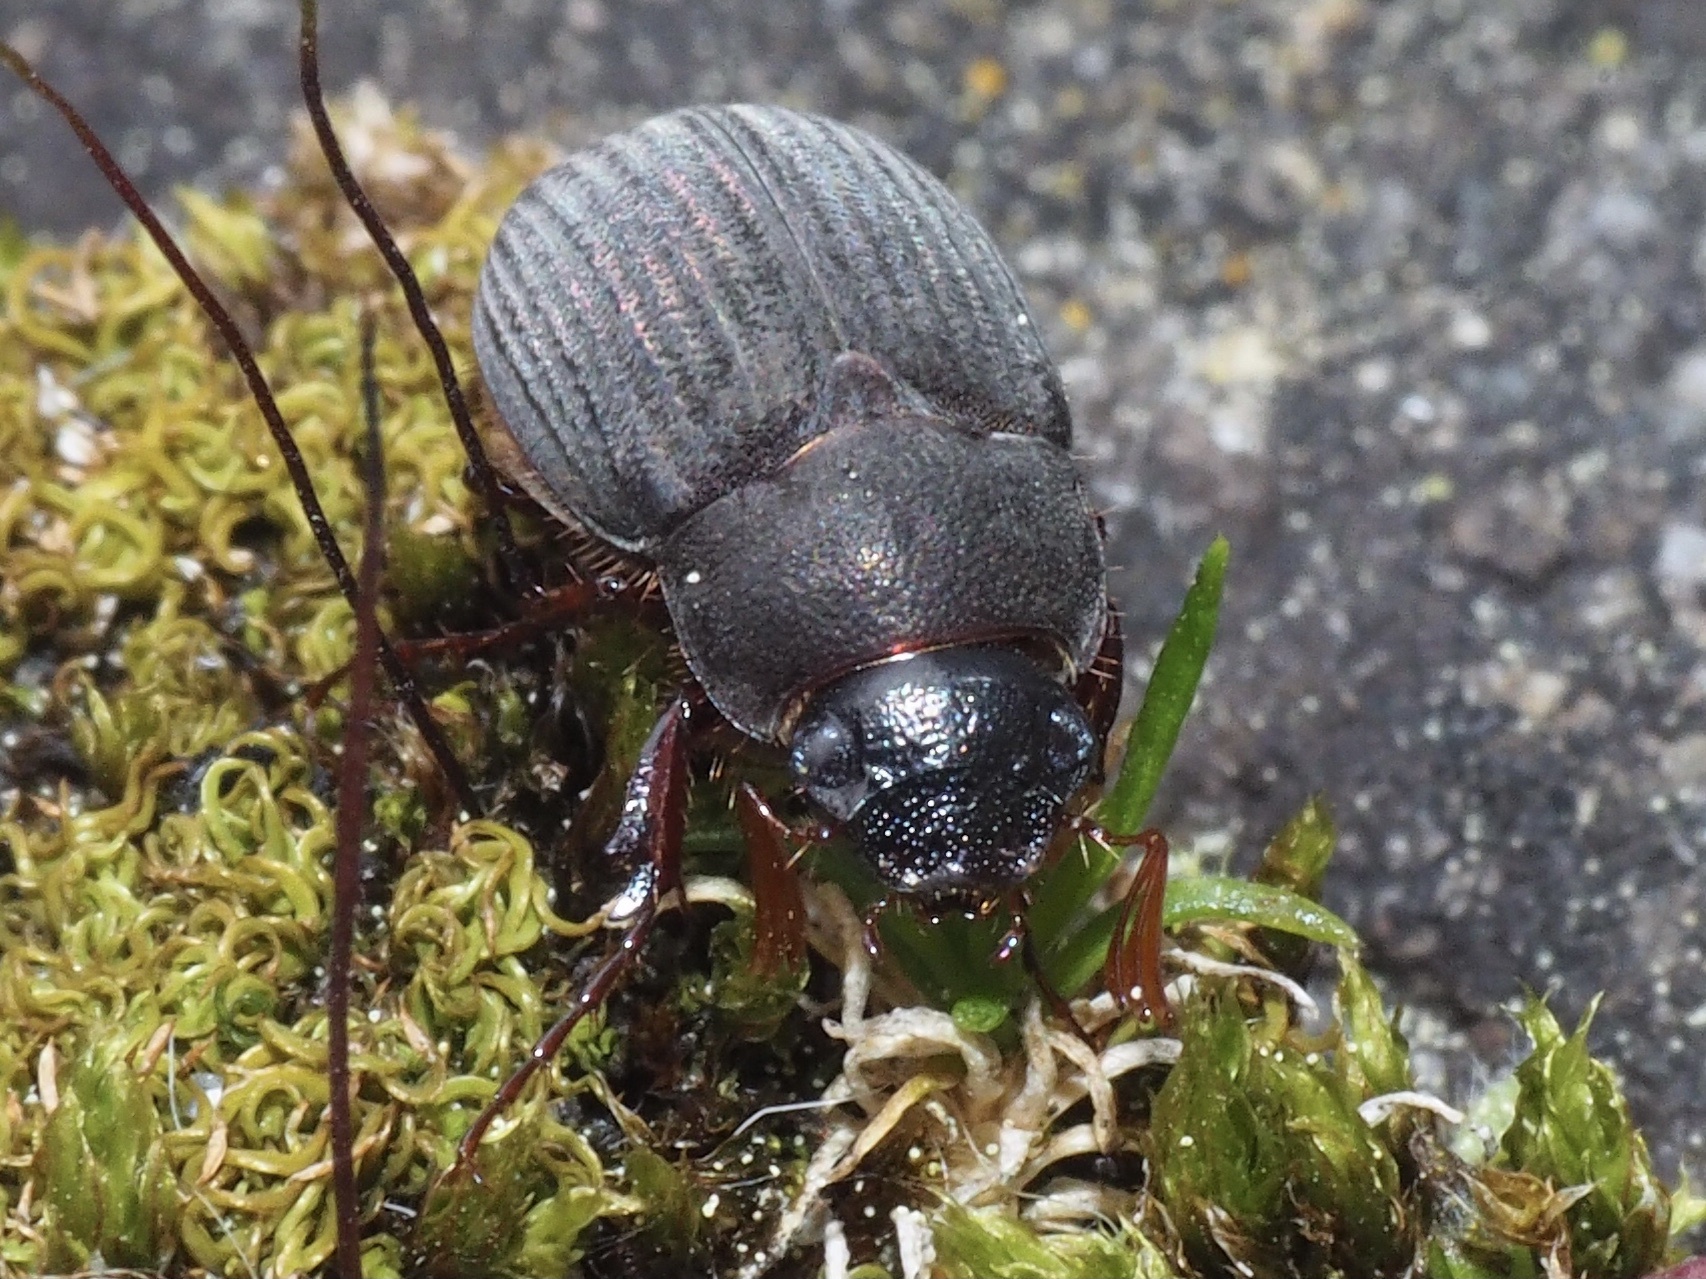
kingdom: Animalia
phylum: Arthropoda
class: Insecta
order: Coleoptera
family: Scarabaeidae
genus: Maladera
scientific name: Maladera holosericea
